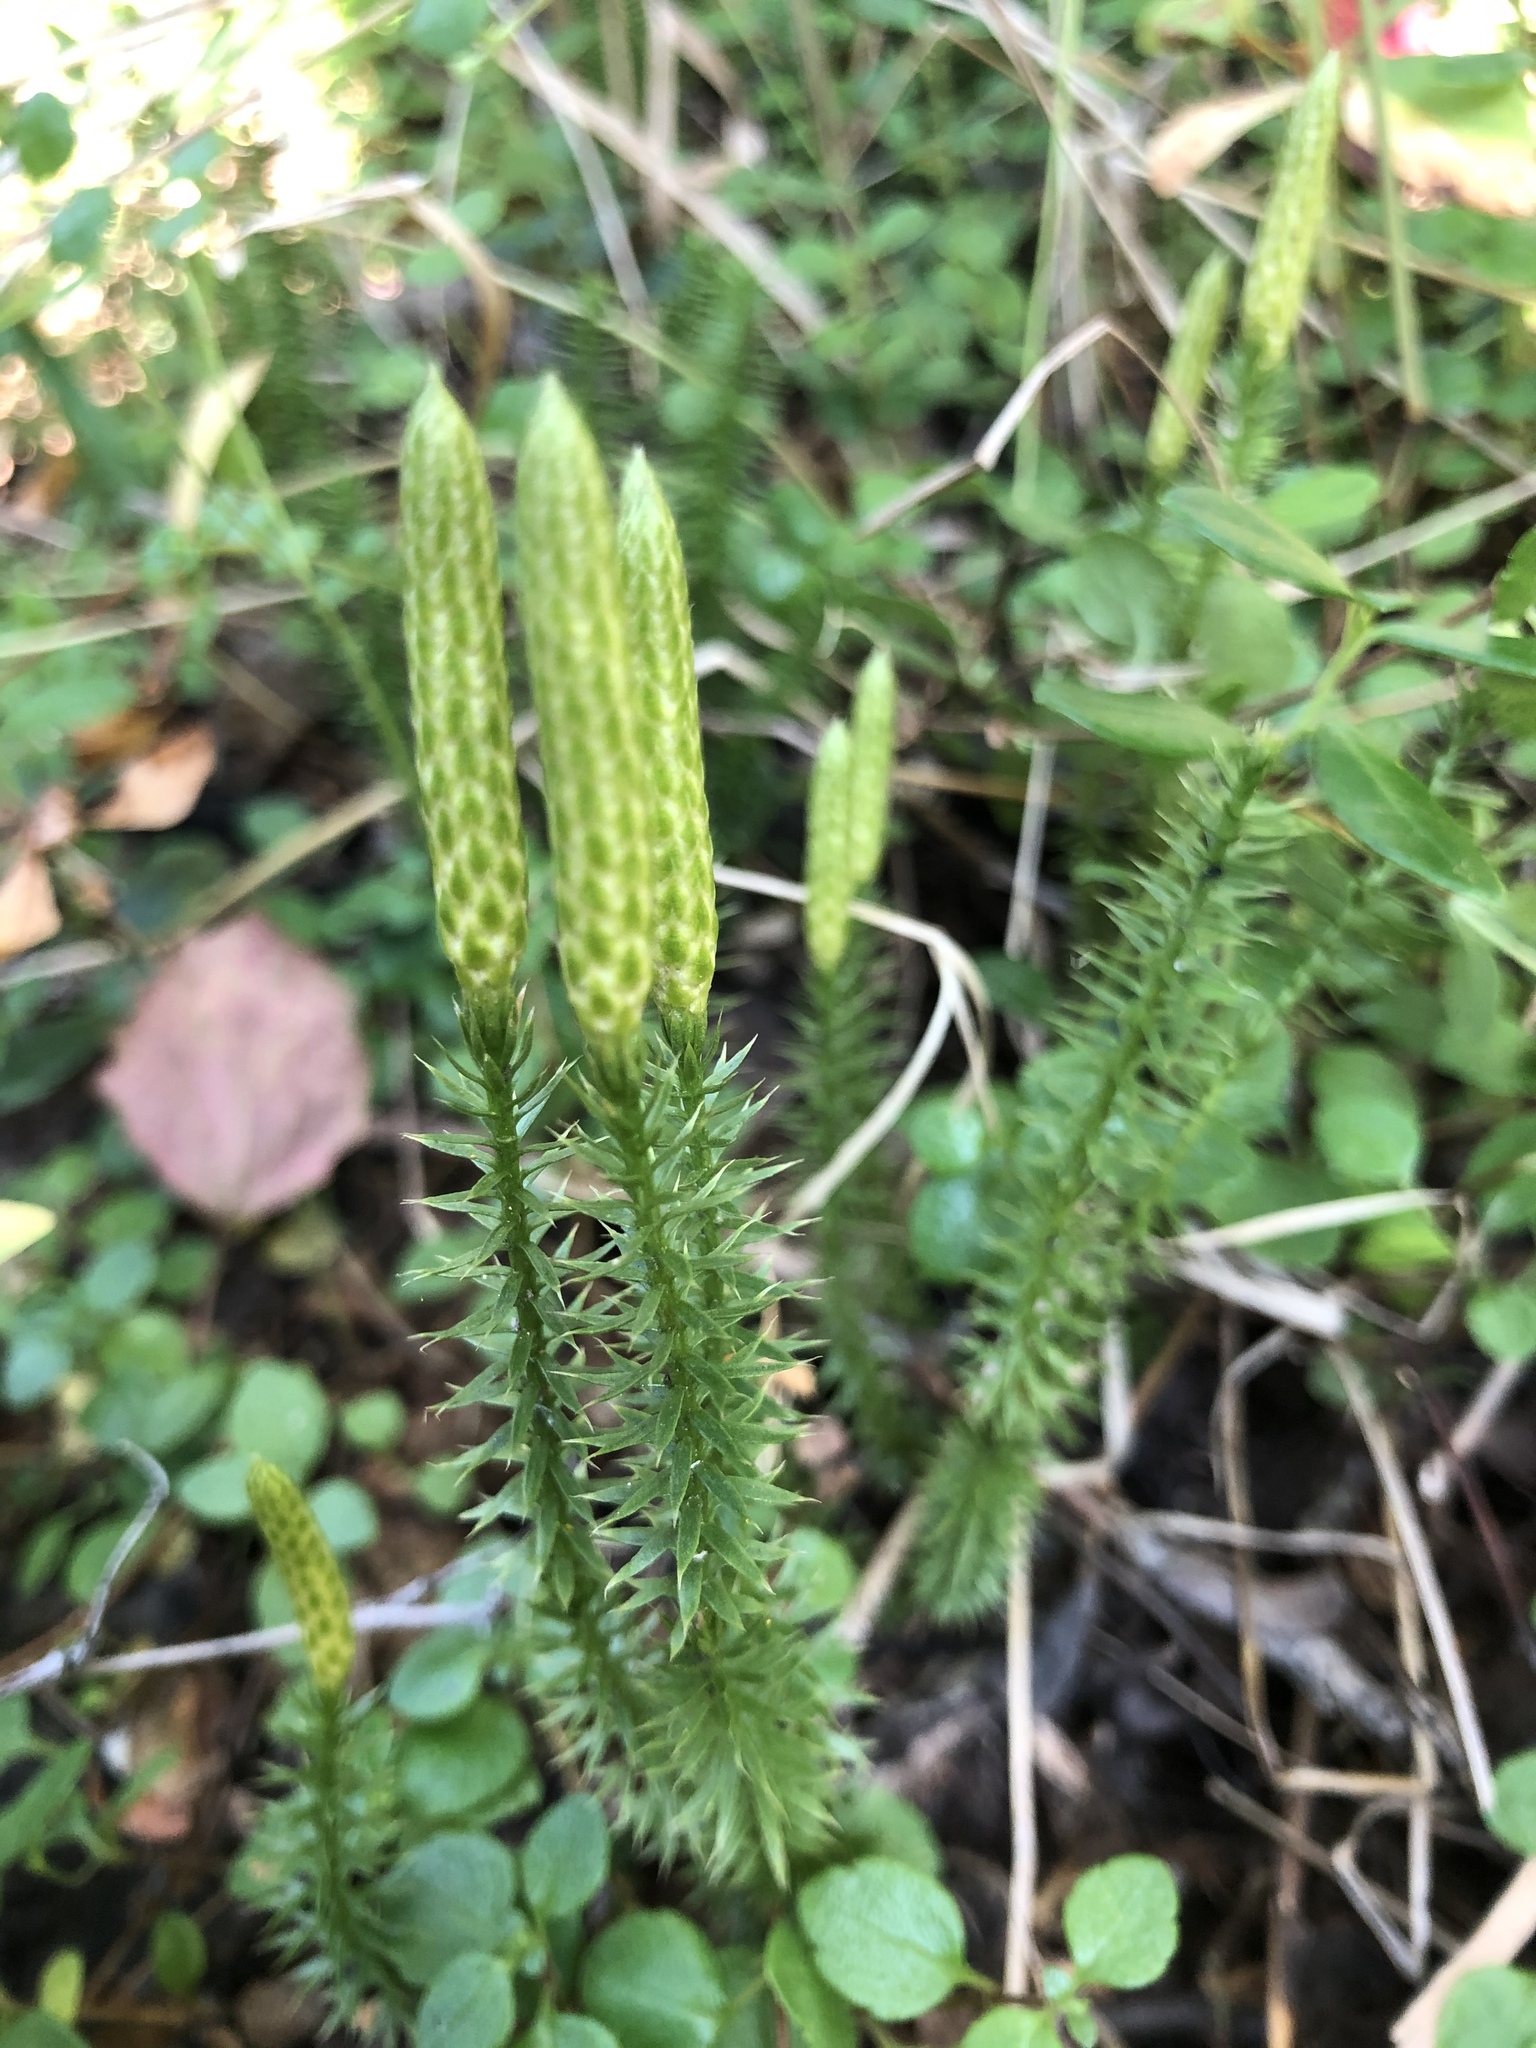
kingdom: Plantae
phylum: Tracheophyta
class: Lycopodiopsida
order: Lycopodiales
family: Lycopodiaceae
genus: Spinulum
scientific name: Spinulum annotinum
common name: Interrupted club-moss
